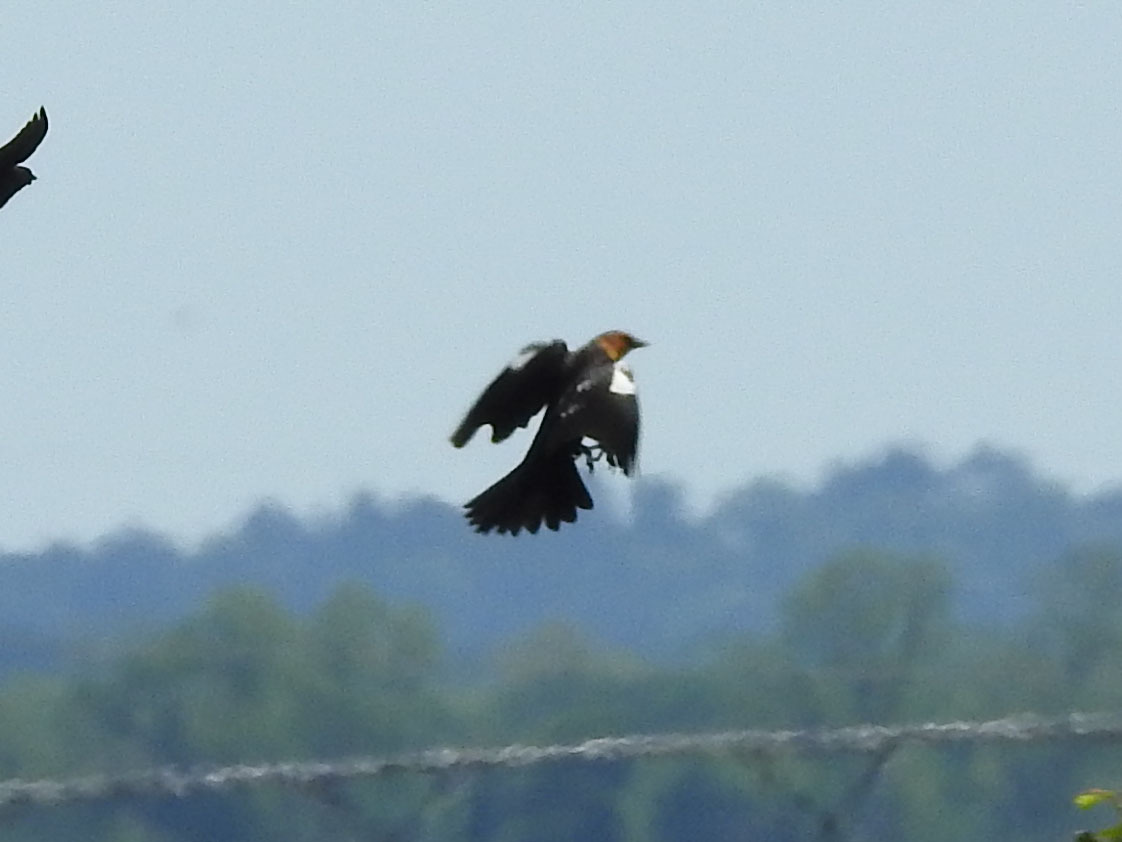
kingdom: Animalia
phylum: Chordata
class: Aves
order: Passeriformes
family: Icteridae
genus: Xanthocephalus
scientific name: Xanthocephalus xanthocephalus
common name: Yellow-headed blackbird
